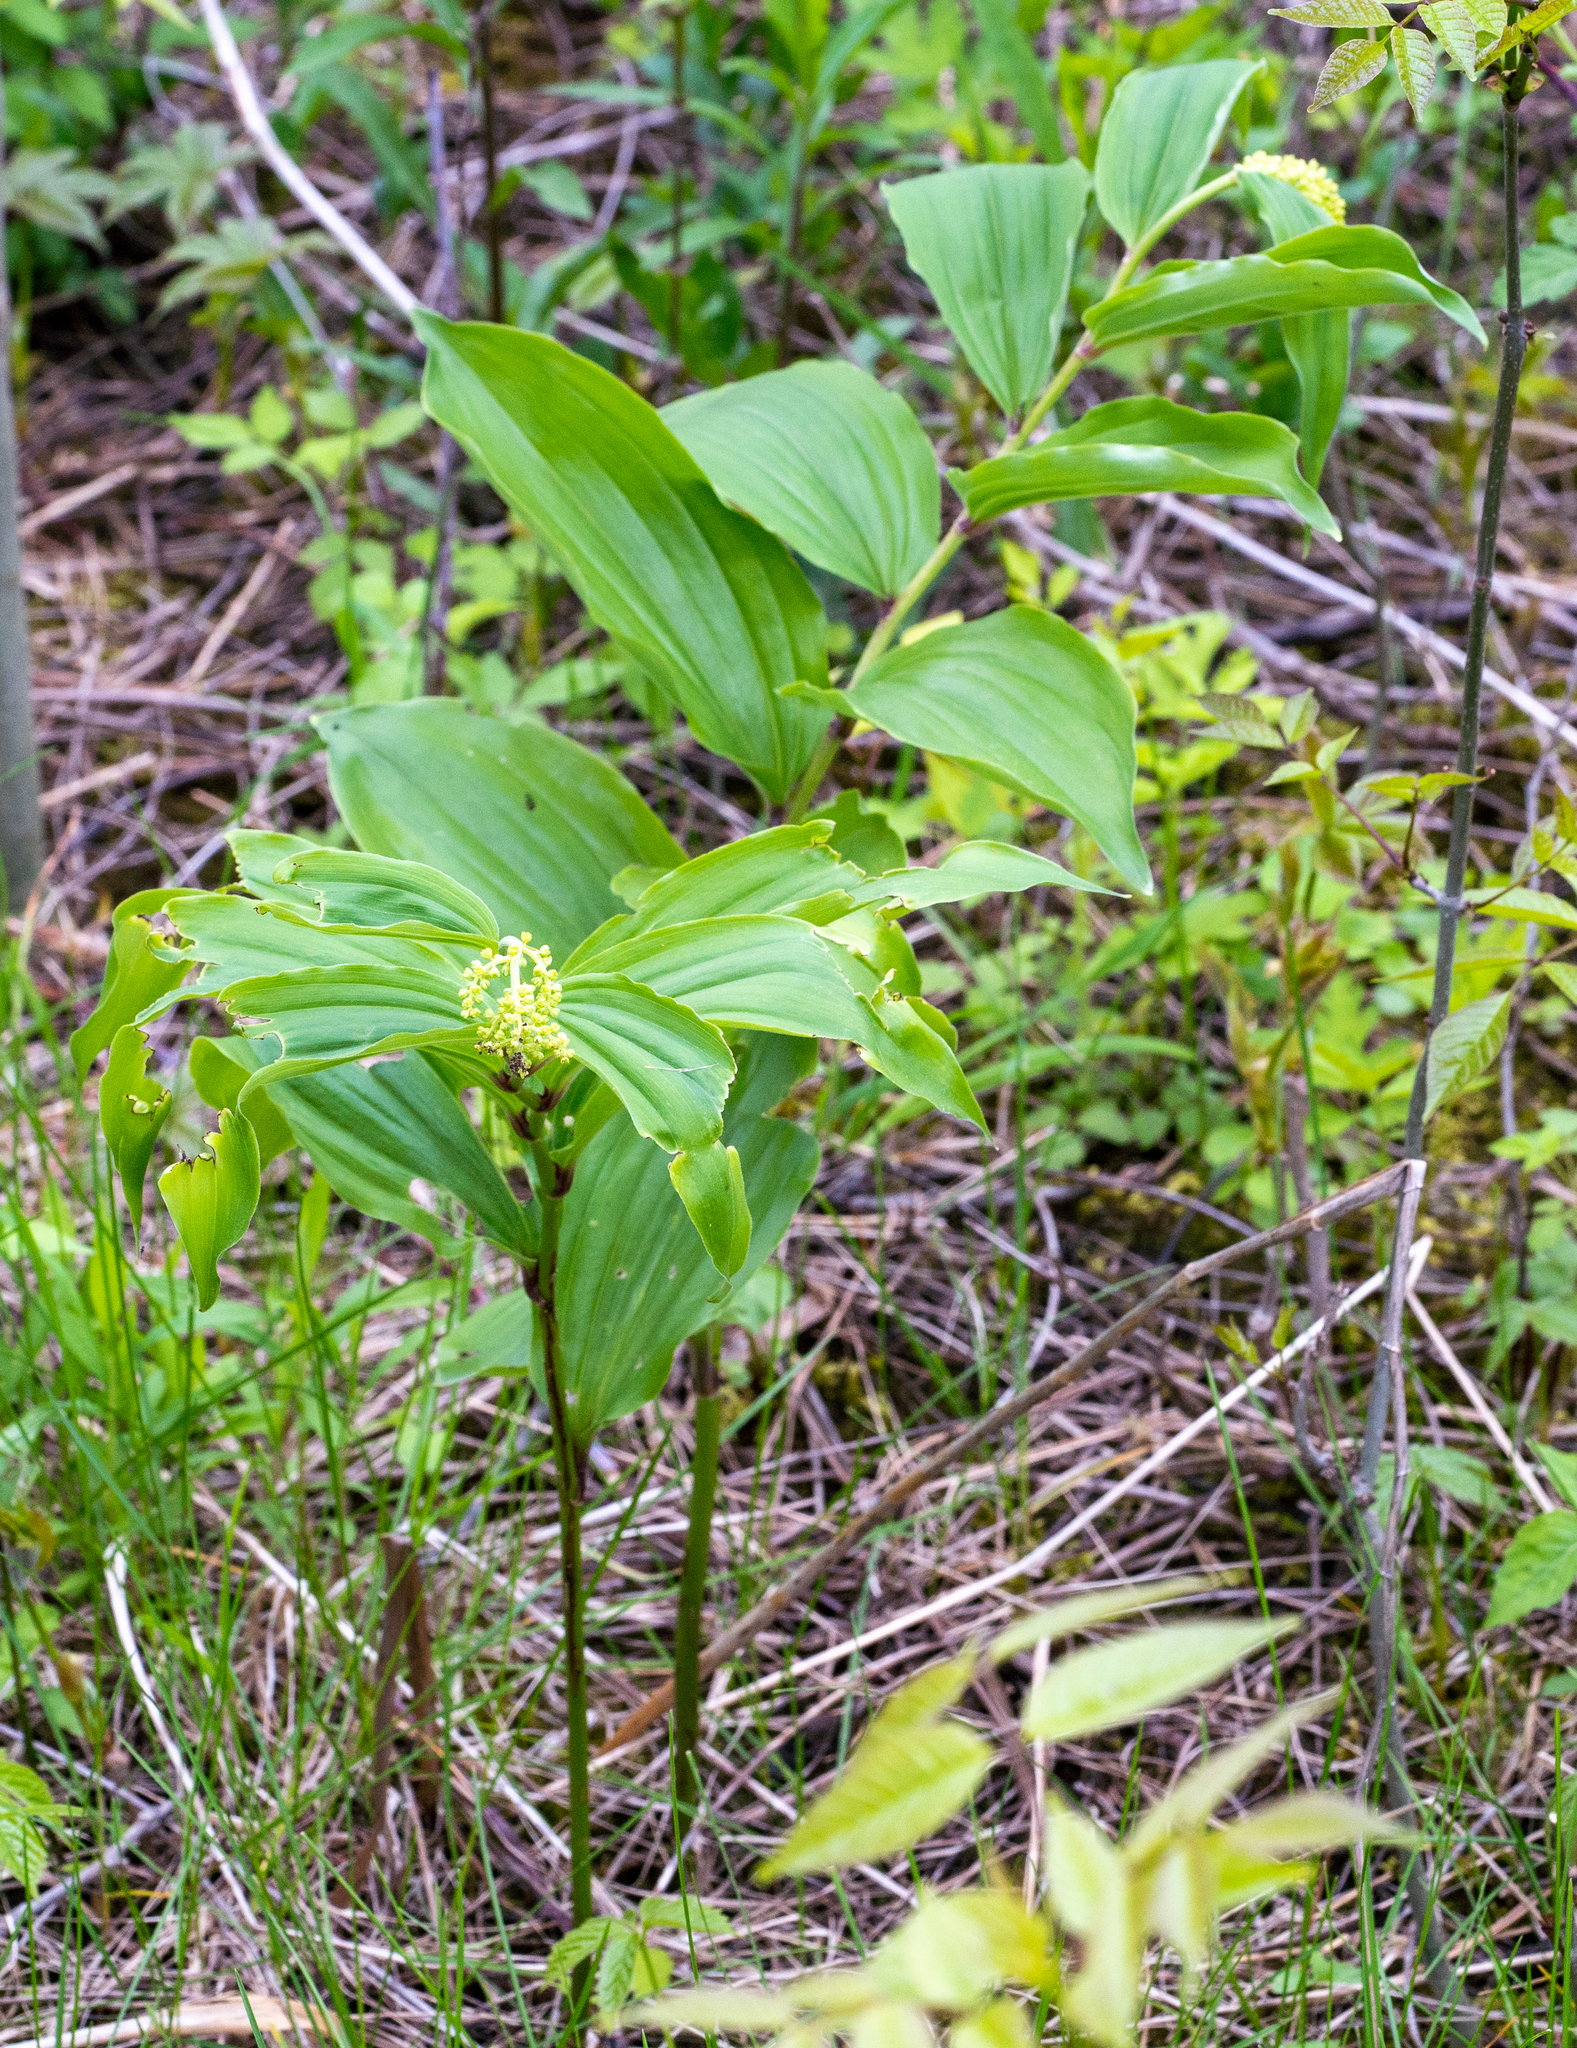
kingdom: Plantae
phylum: Tracheophyta
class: Liliopsida
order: Asparagales
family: Asparagaceae
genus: Maianthemum
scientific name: Maianthemum racemosum
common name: False spikenard
